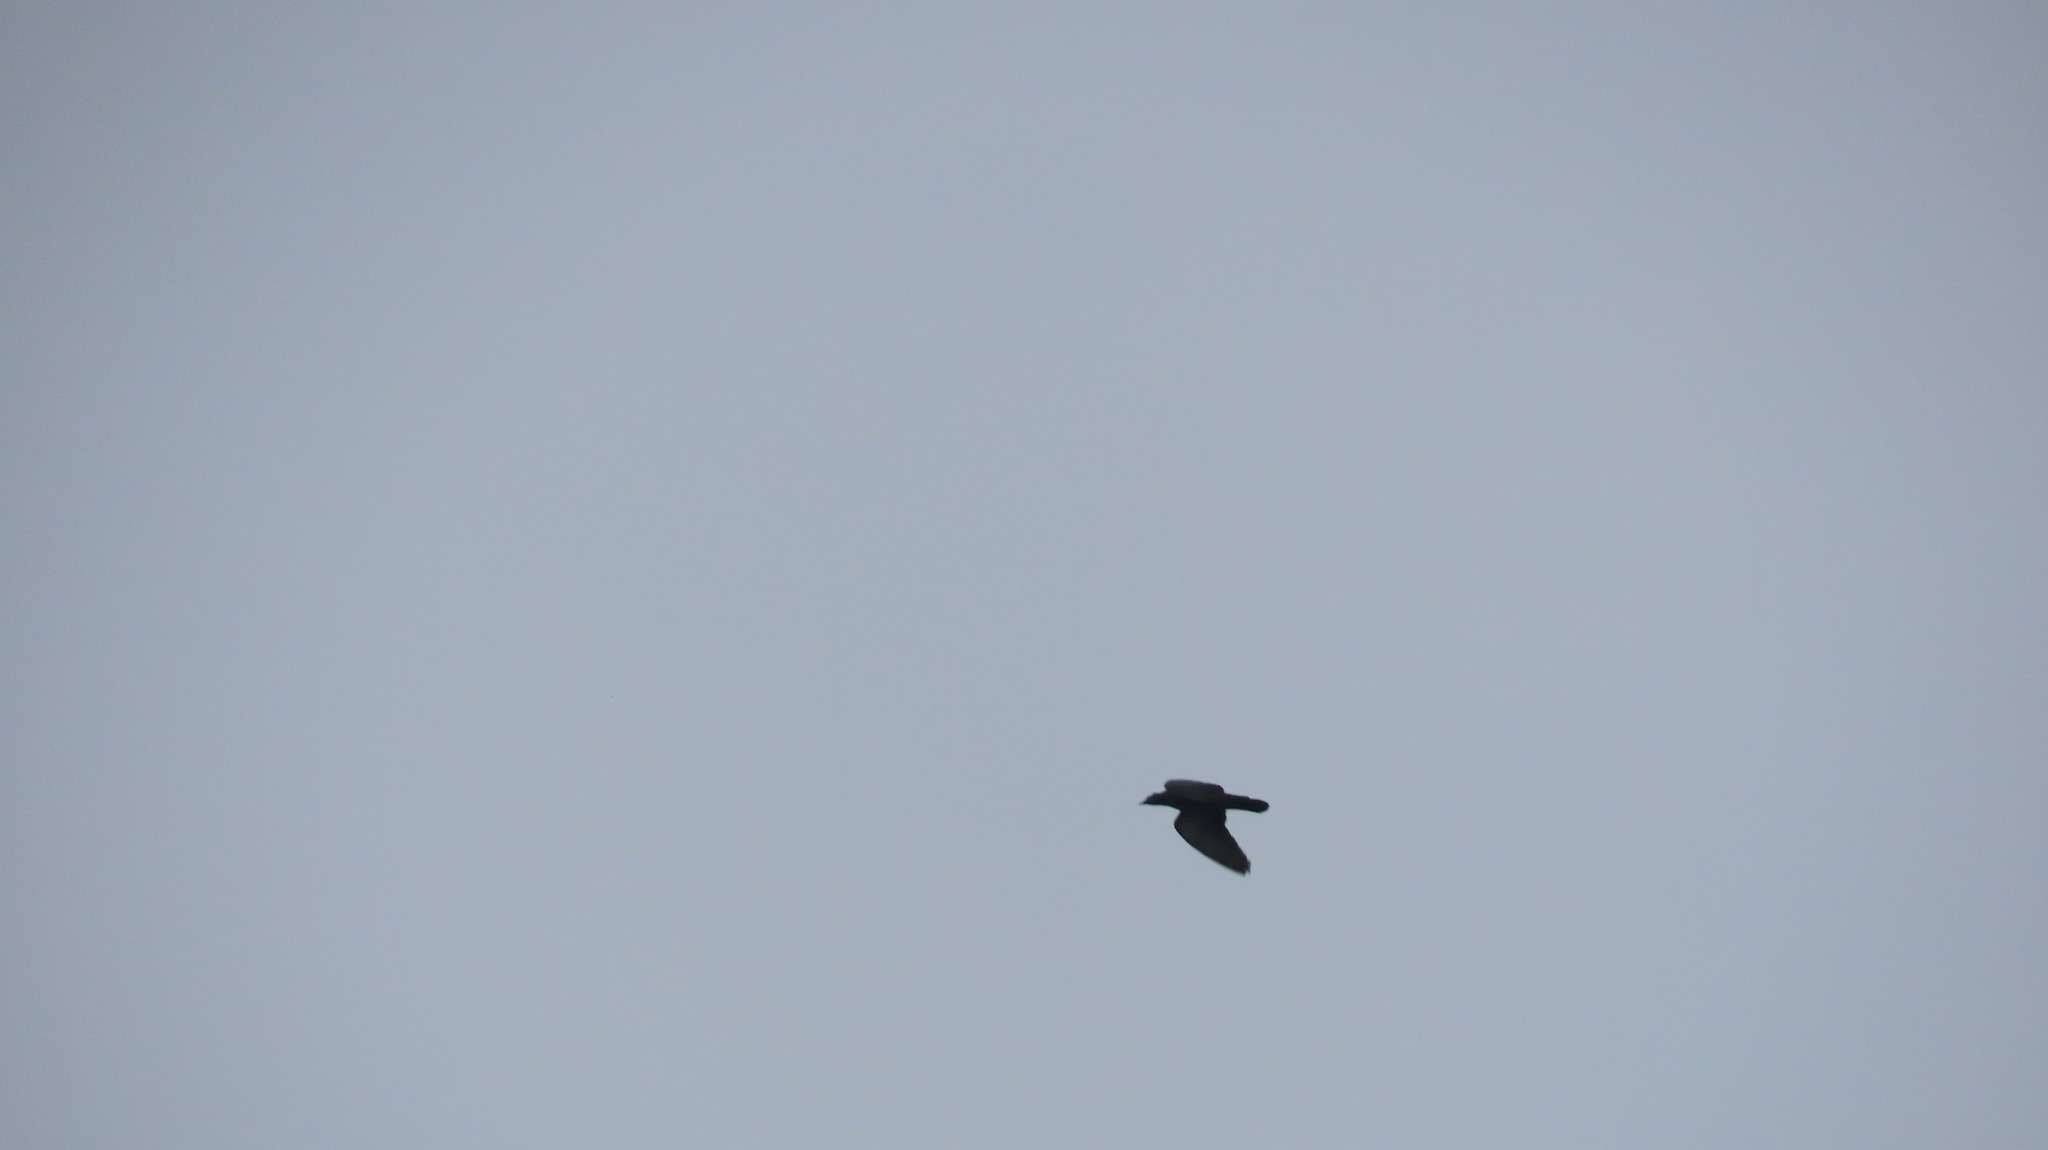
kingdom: Animalia
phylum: Chordata
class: Aves
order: Columbiformes
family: Columbidae
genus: Columba
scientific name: Columba livia
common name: Rock pigeon
